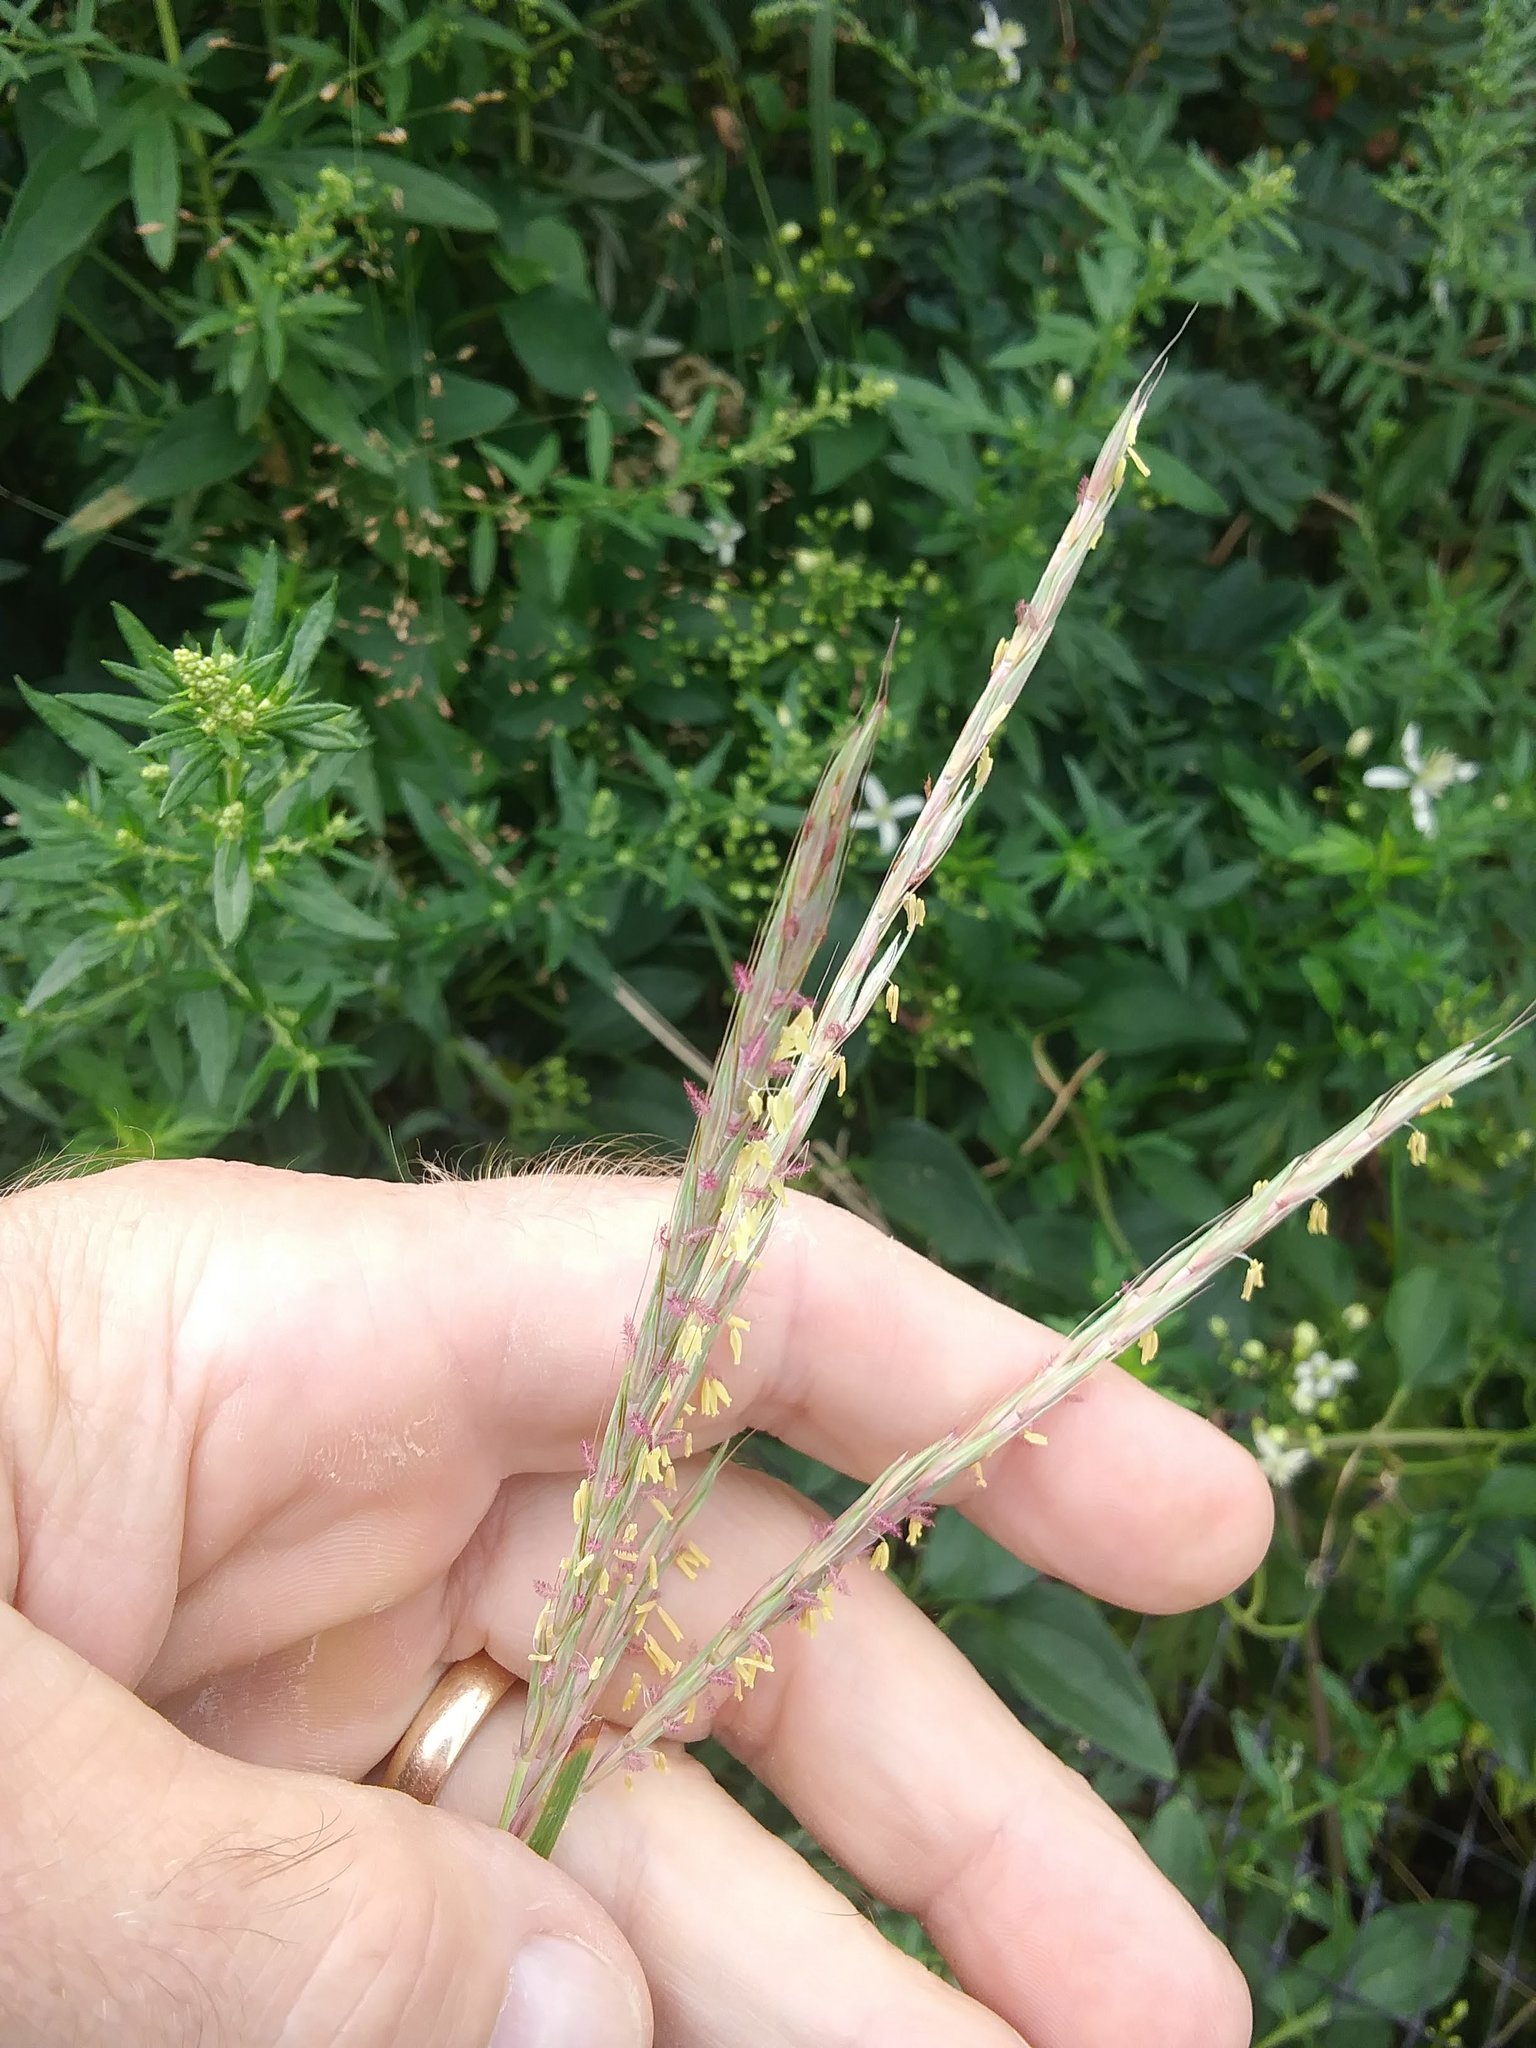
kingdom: Plantae
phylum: Tracheophyta
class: Liliopsida
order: Poales
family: Poaceae
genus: Andropogon
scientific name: Andropogon gerardi
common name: Big bluestem
